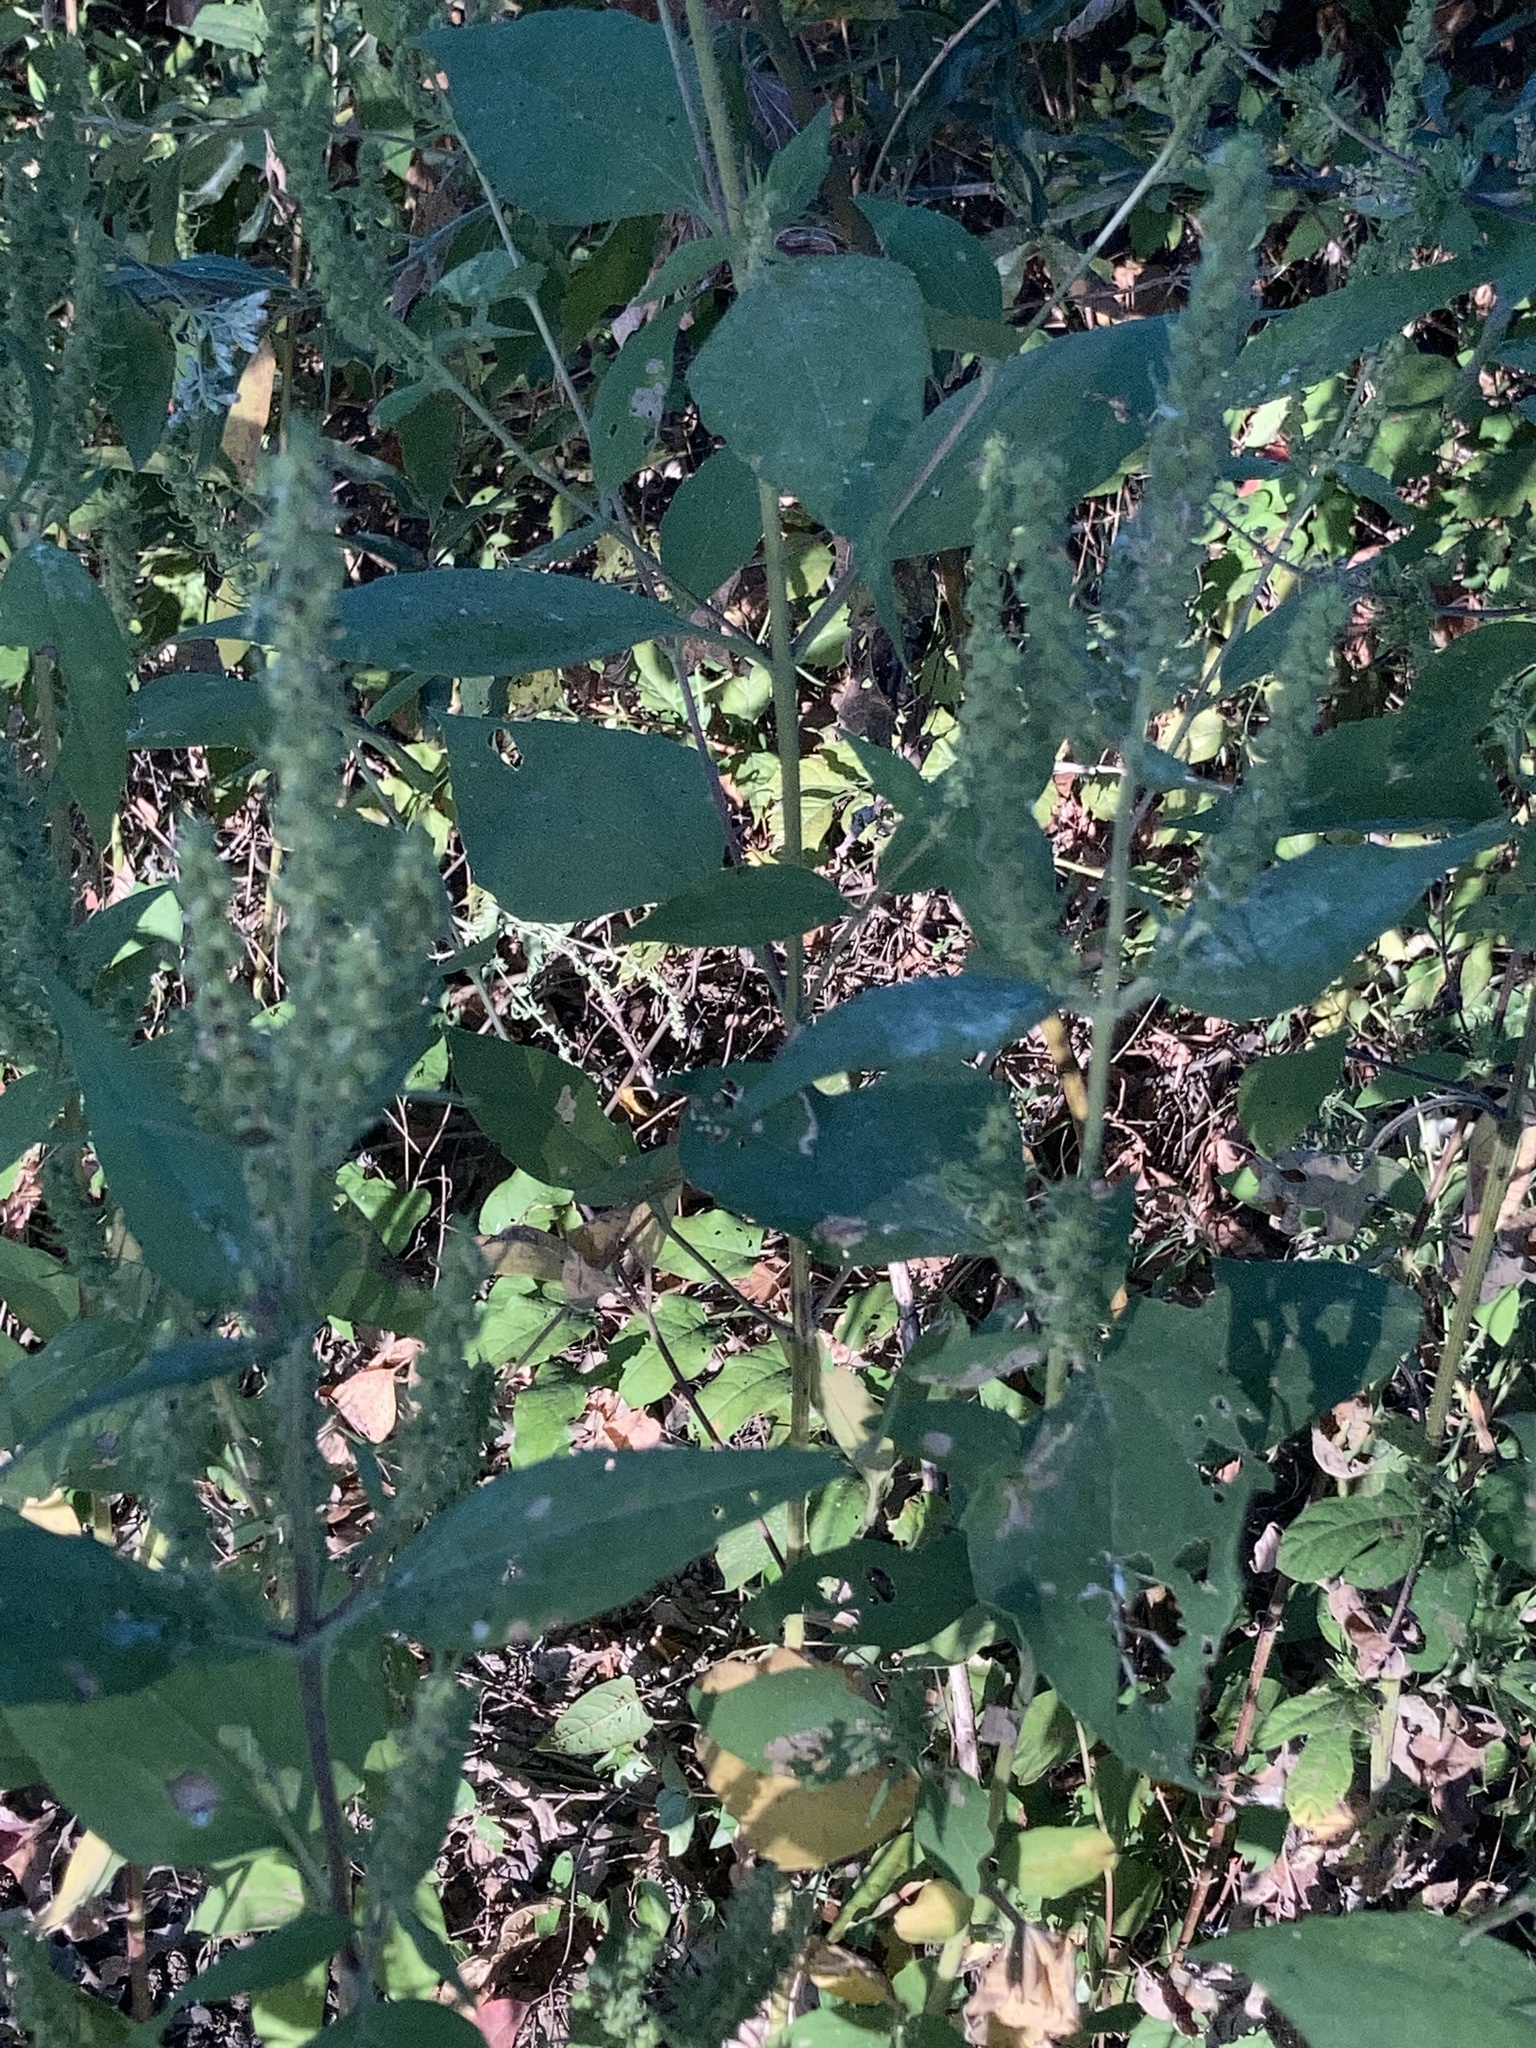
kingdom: Plantae
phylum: Tracheophyta
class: Magnoliopsida
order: Asterales
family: Asteraceae
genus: Iva
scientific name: Iva annua
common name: Marsh-elder
